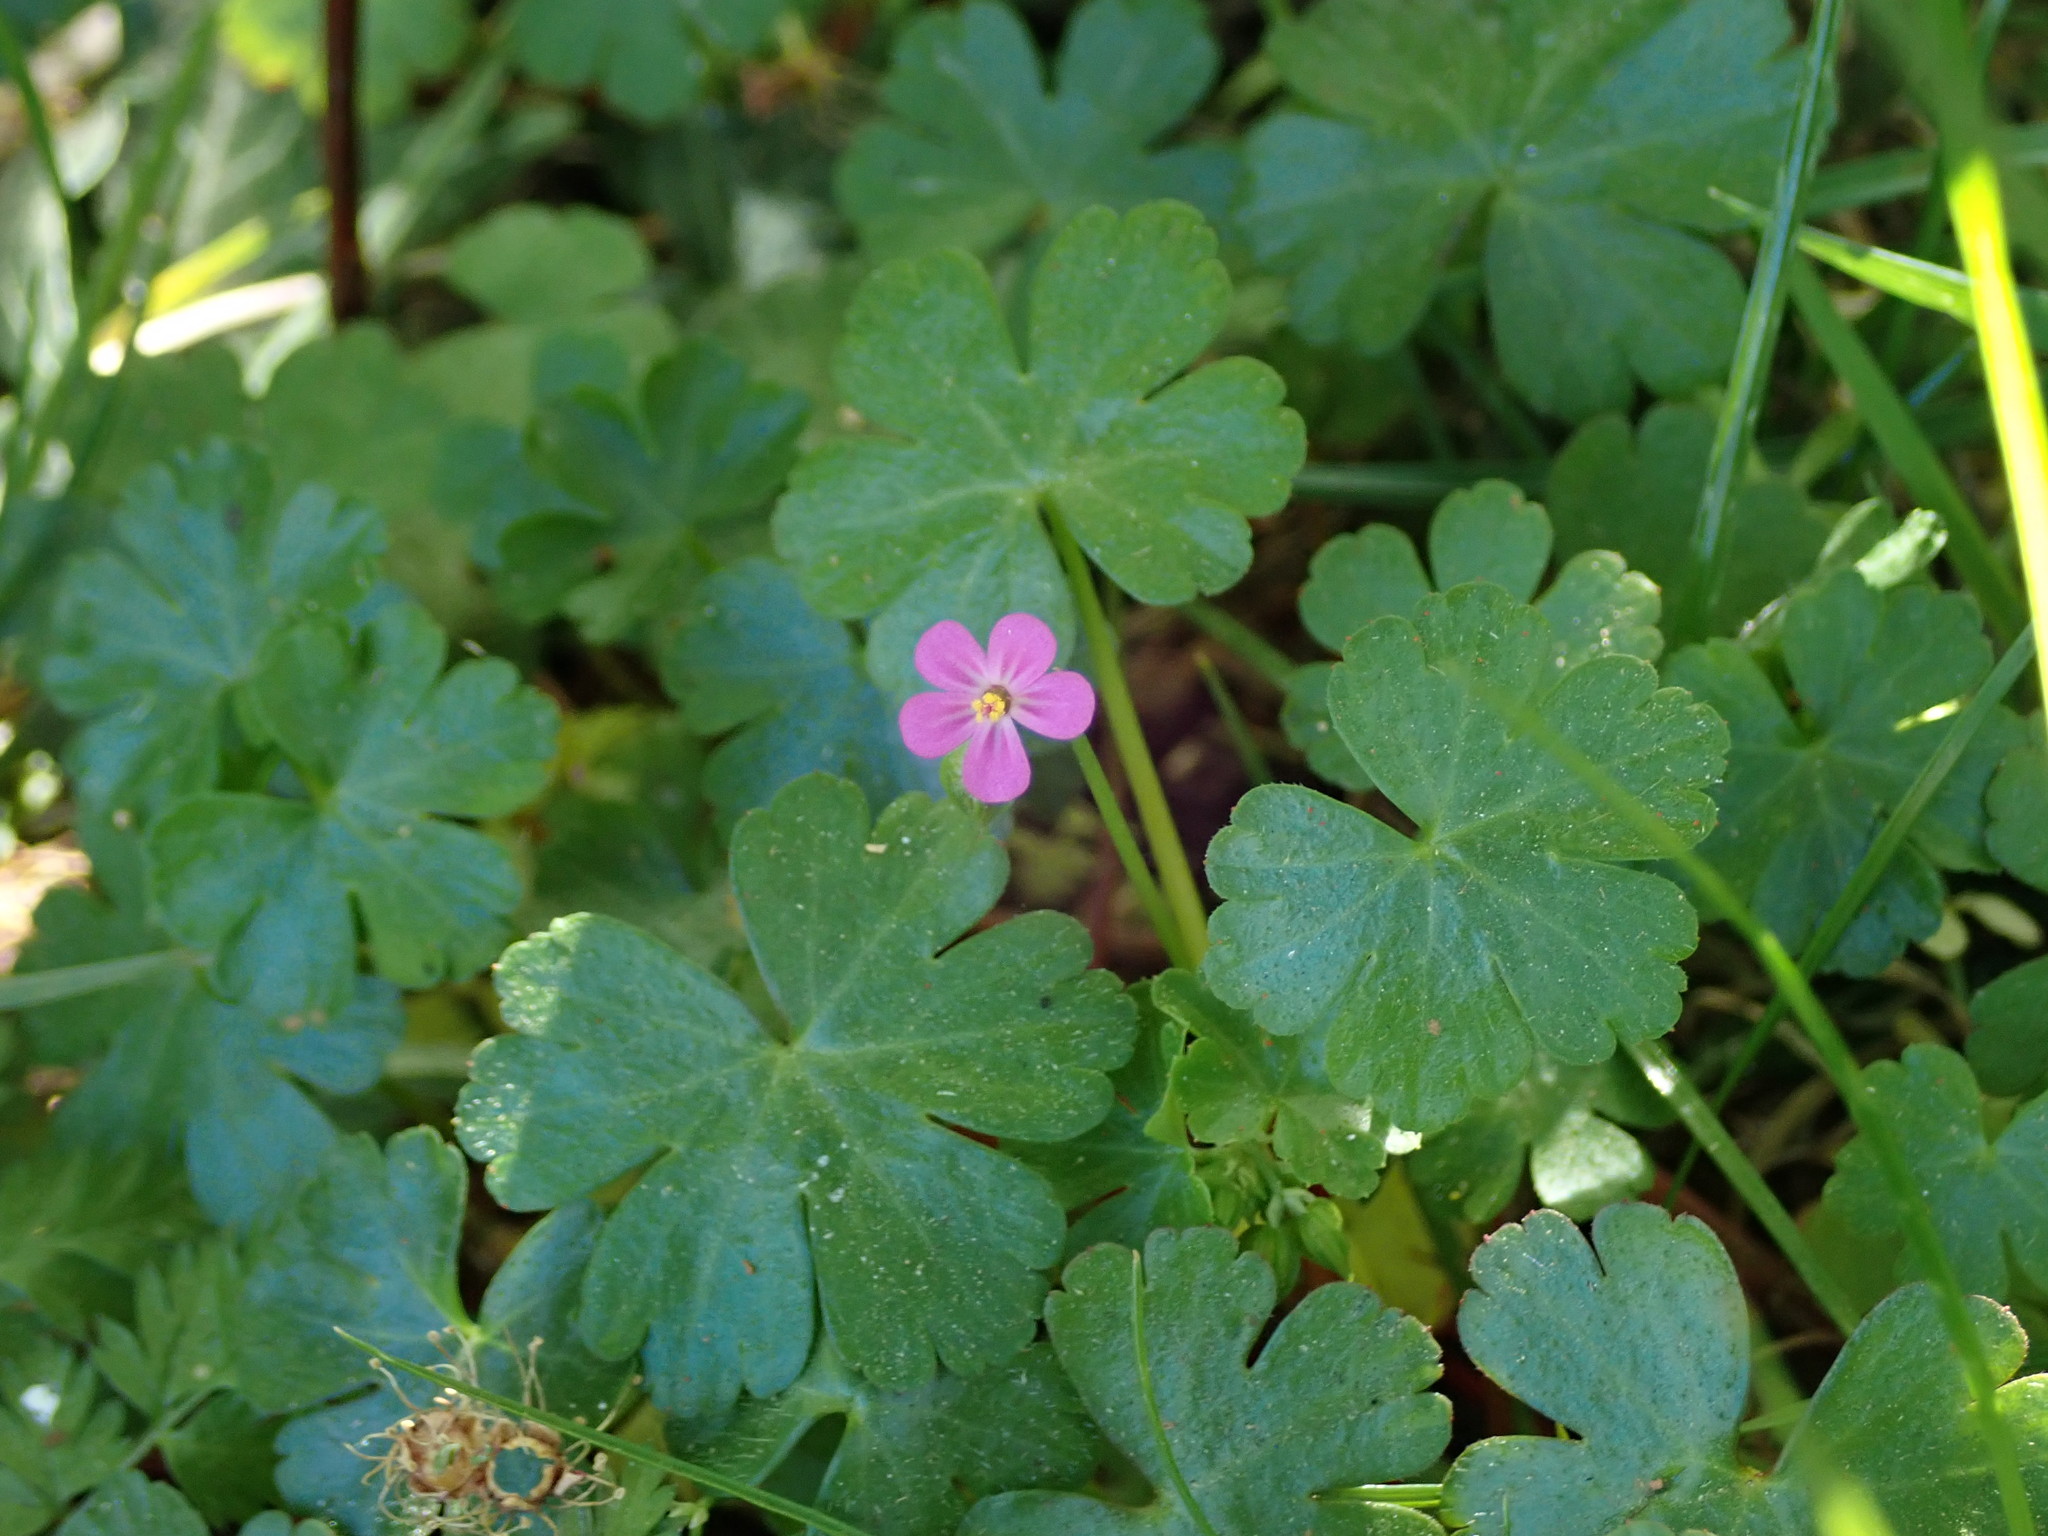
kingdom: Plantae
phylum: Tracheophyta
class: Magnoliopsida
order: Geraniales
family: Geraniaceae
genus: Geranium
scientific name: Geranium lucidum
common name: Shining crane's-bill
